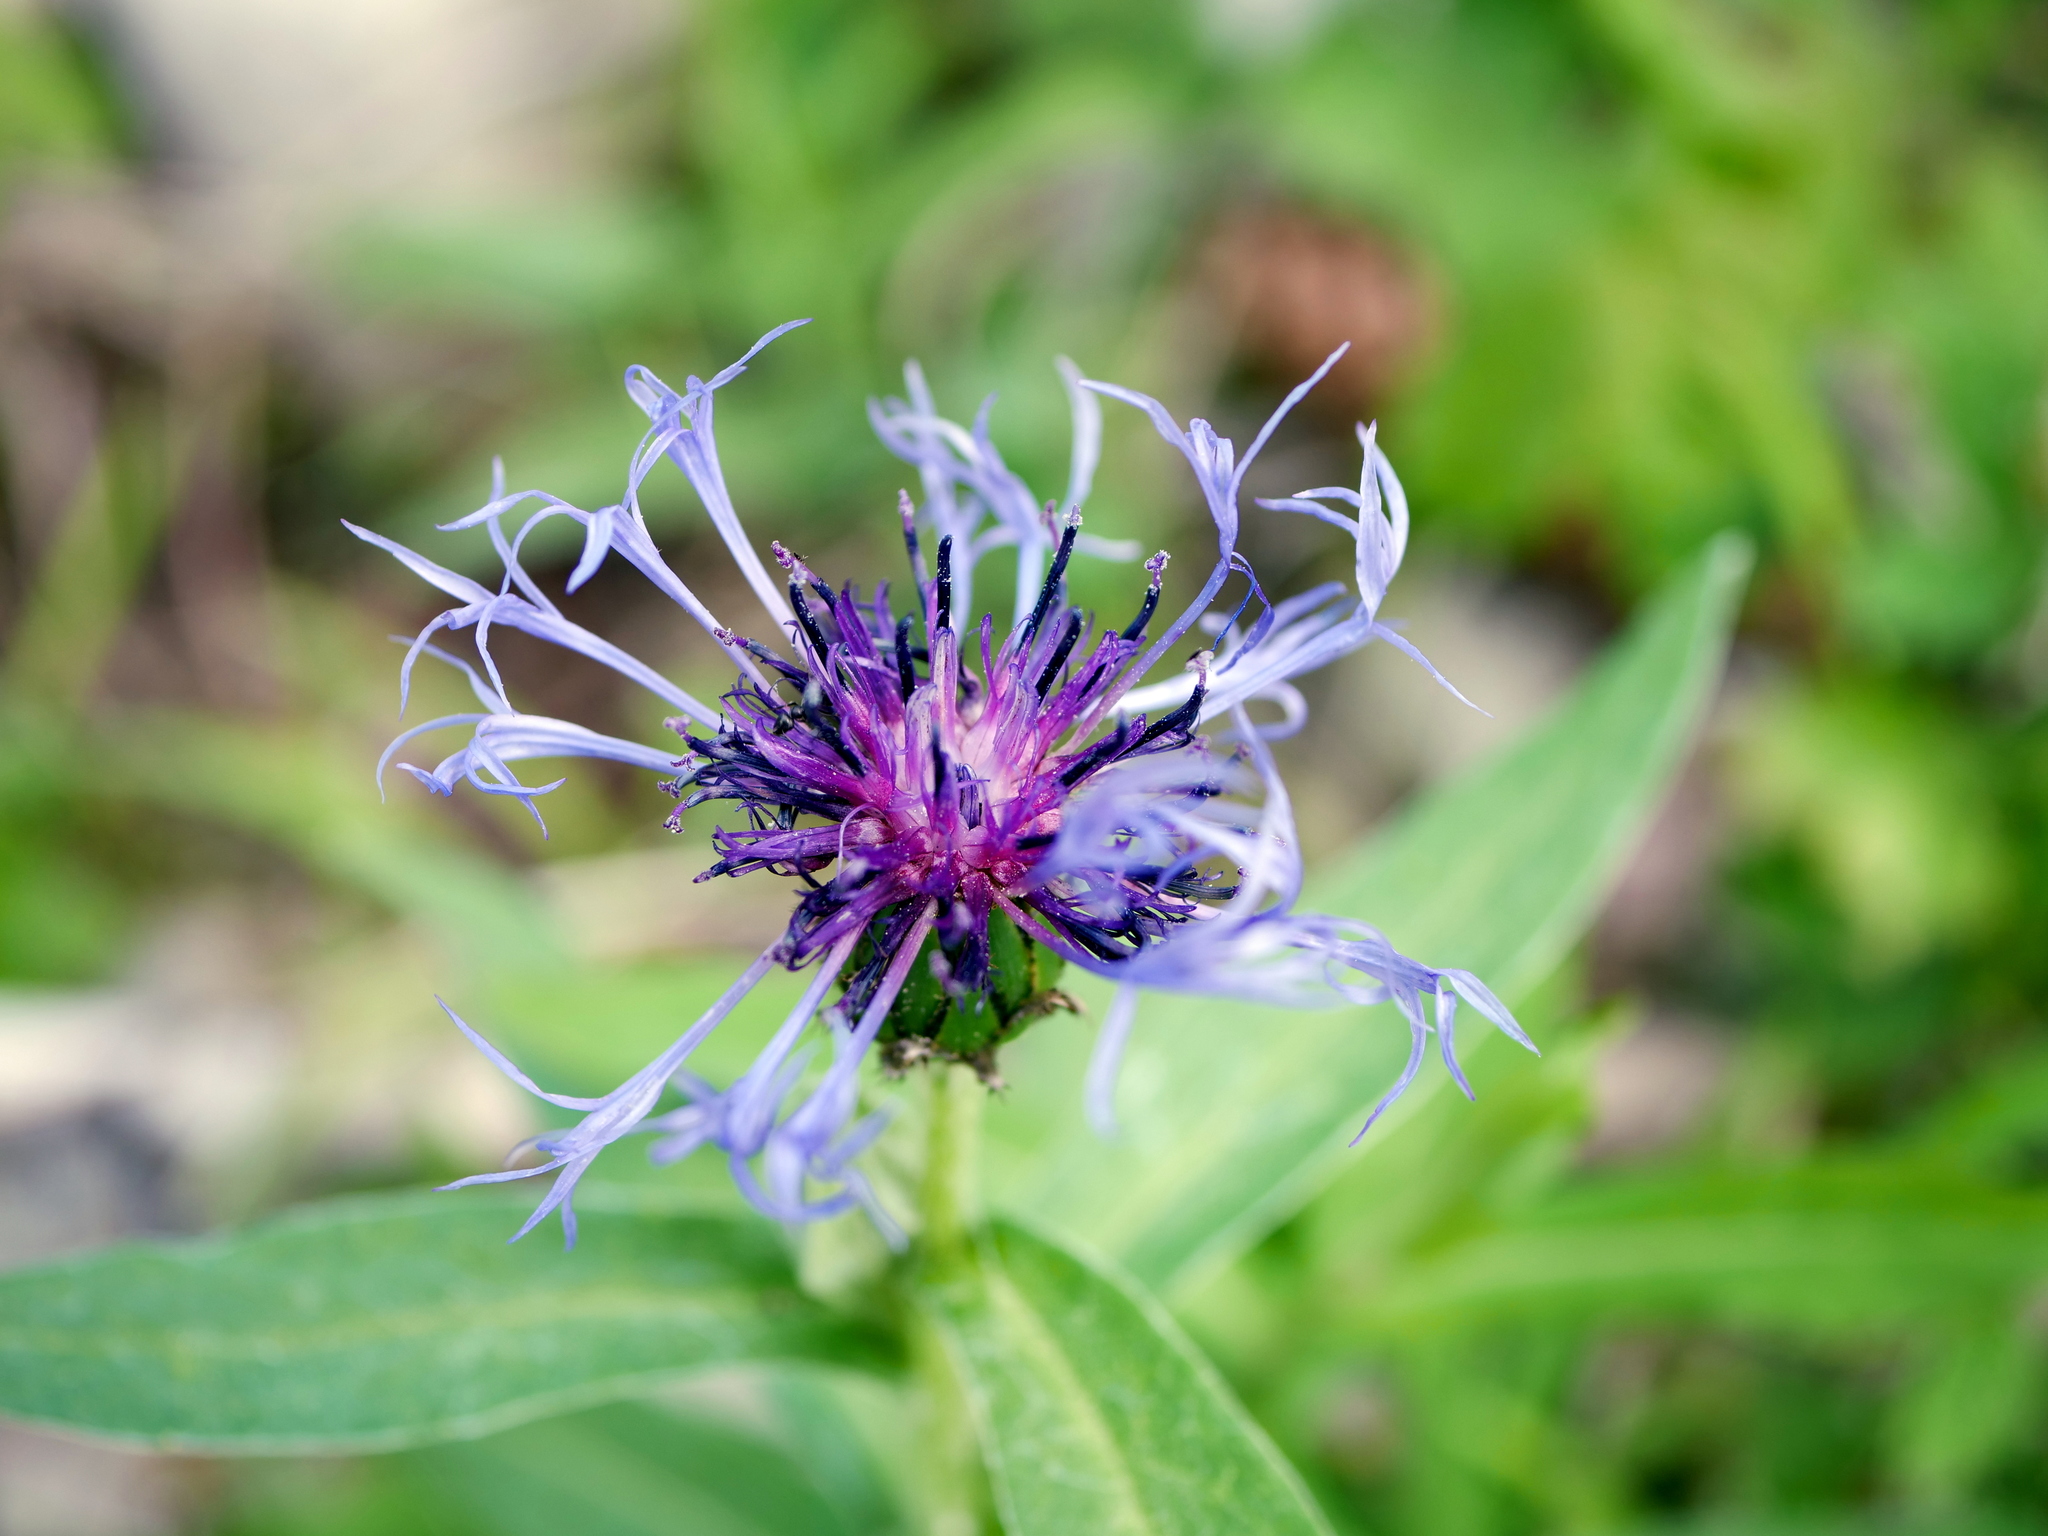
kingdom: Plantae
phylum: Tracheophyta
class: Magnoliopsida
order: Asterales
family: Asteraceae
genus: Centaurea
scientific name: Centaurea montana
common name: Perennial cornflower
